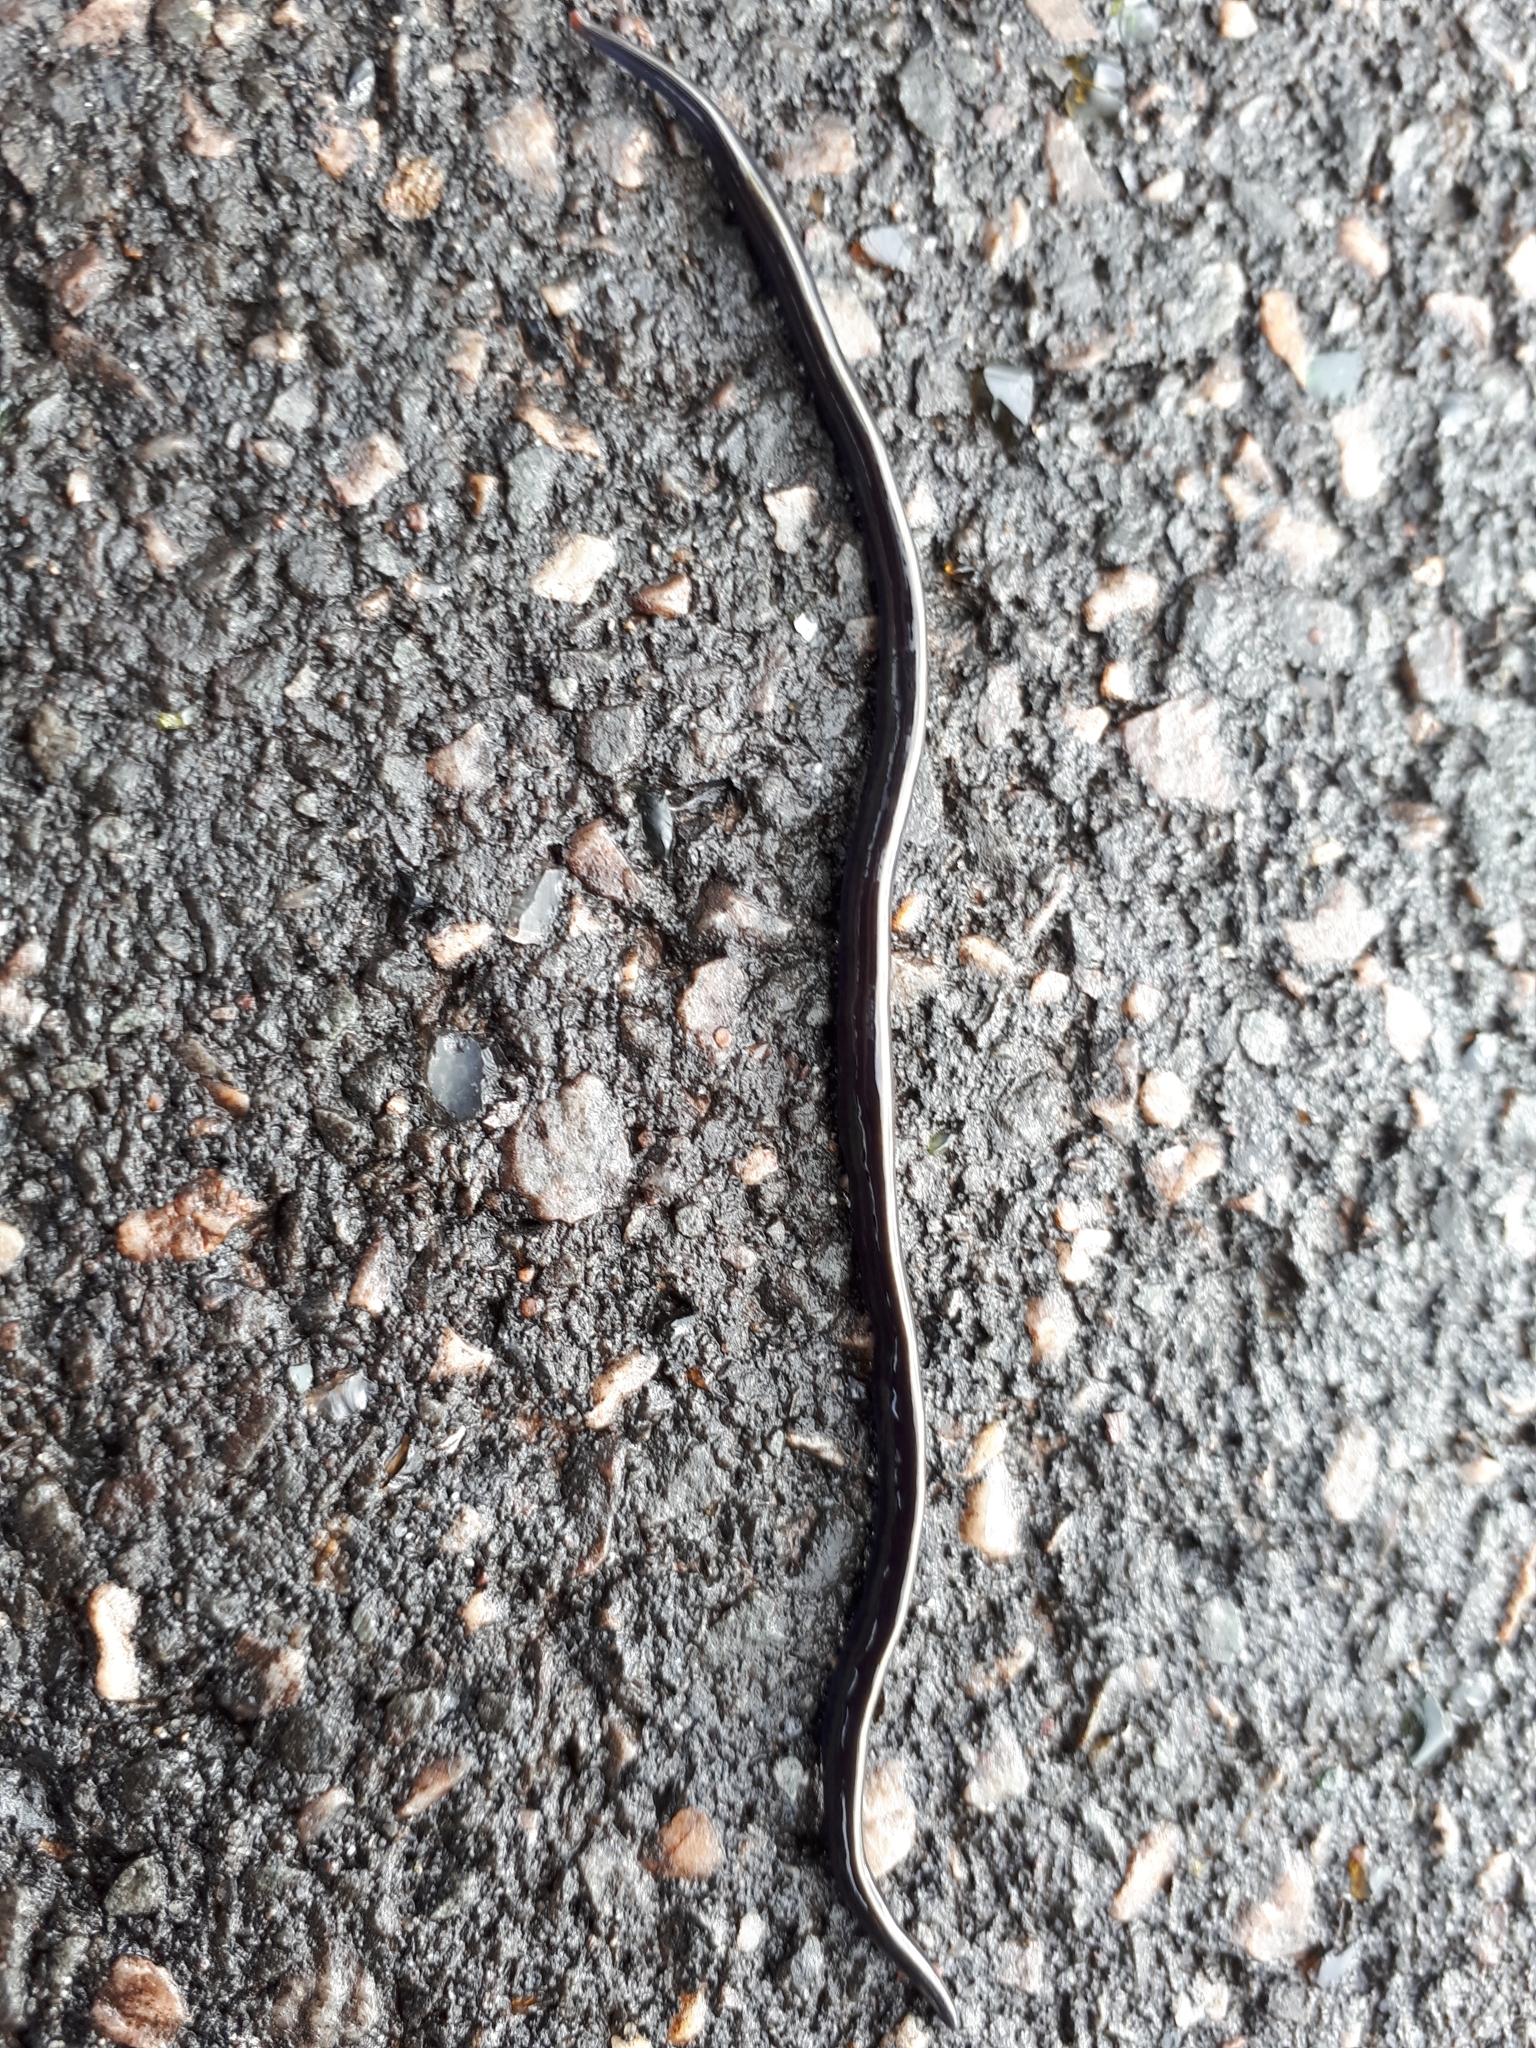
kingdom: Animalia
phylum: Platyhelminthes
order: Tricladida
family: Geoplanidae
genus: Caenoplana
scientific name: Caenoplana coerulea
